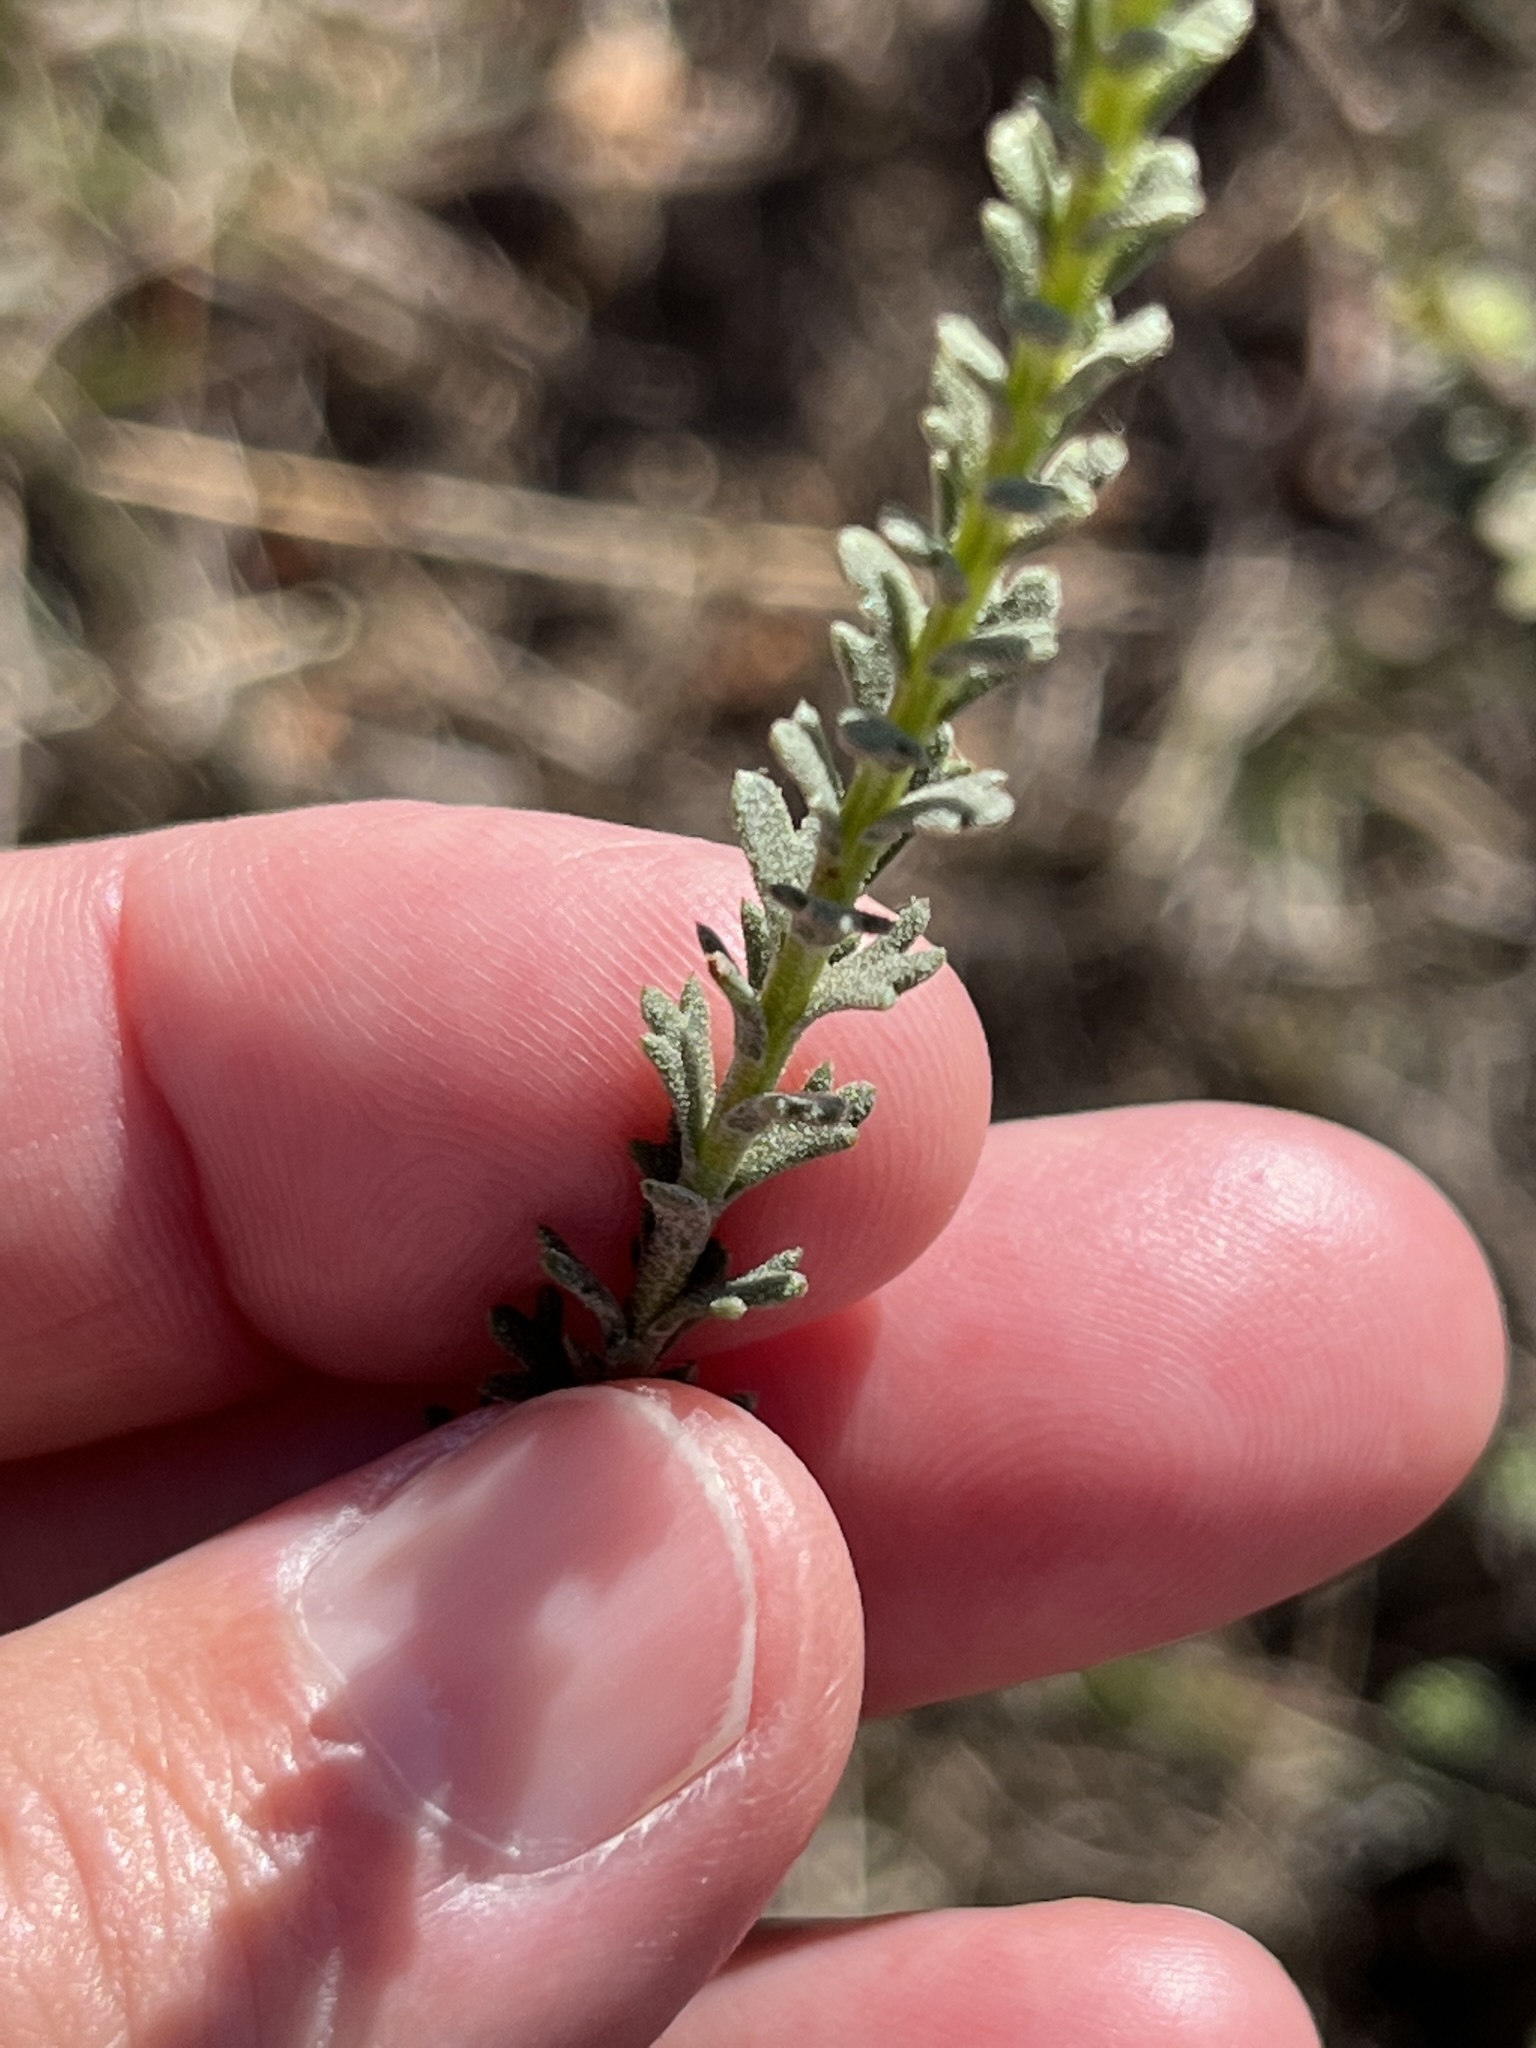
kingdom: Plantae
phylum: Tracheophyta
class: Magnoliopsida
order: Asterales
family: Asteraceae
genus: Athanasia
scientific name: Athanasia trifurcata
